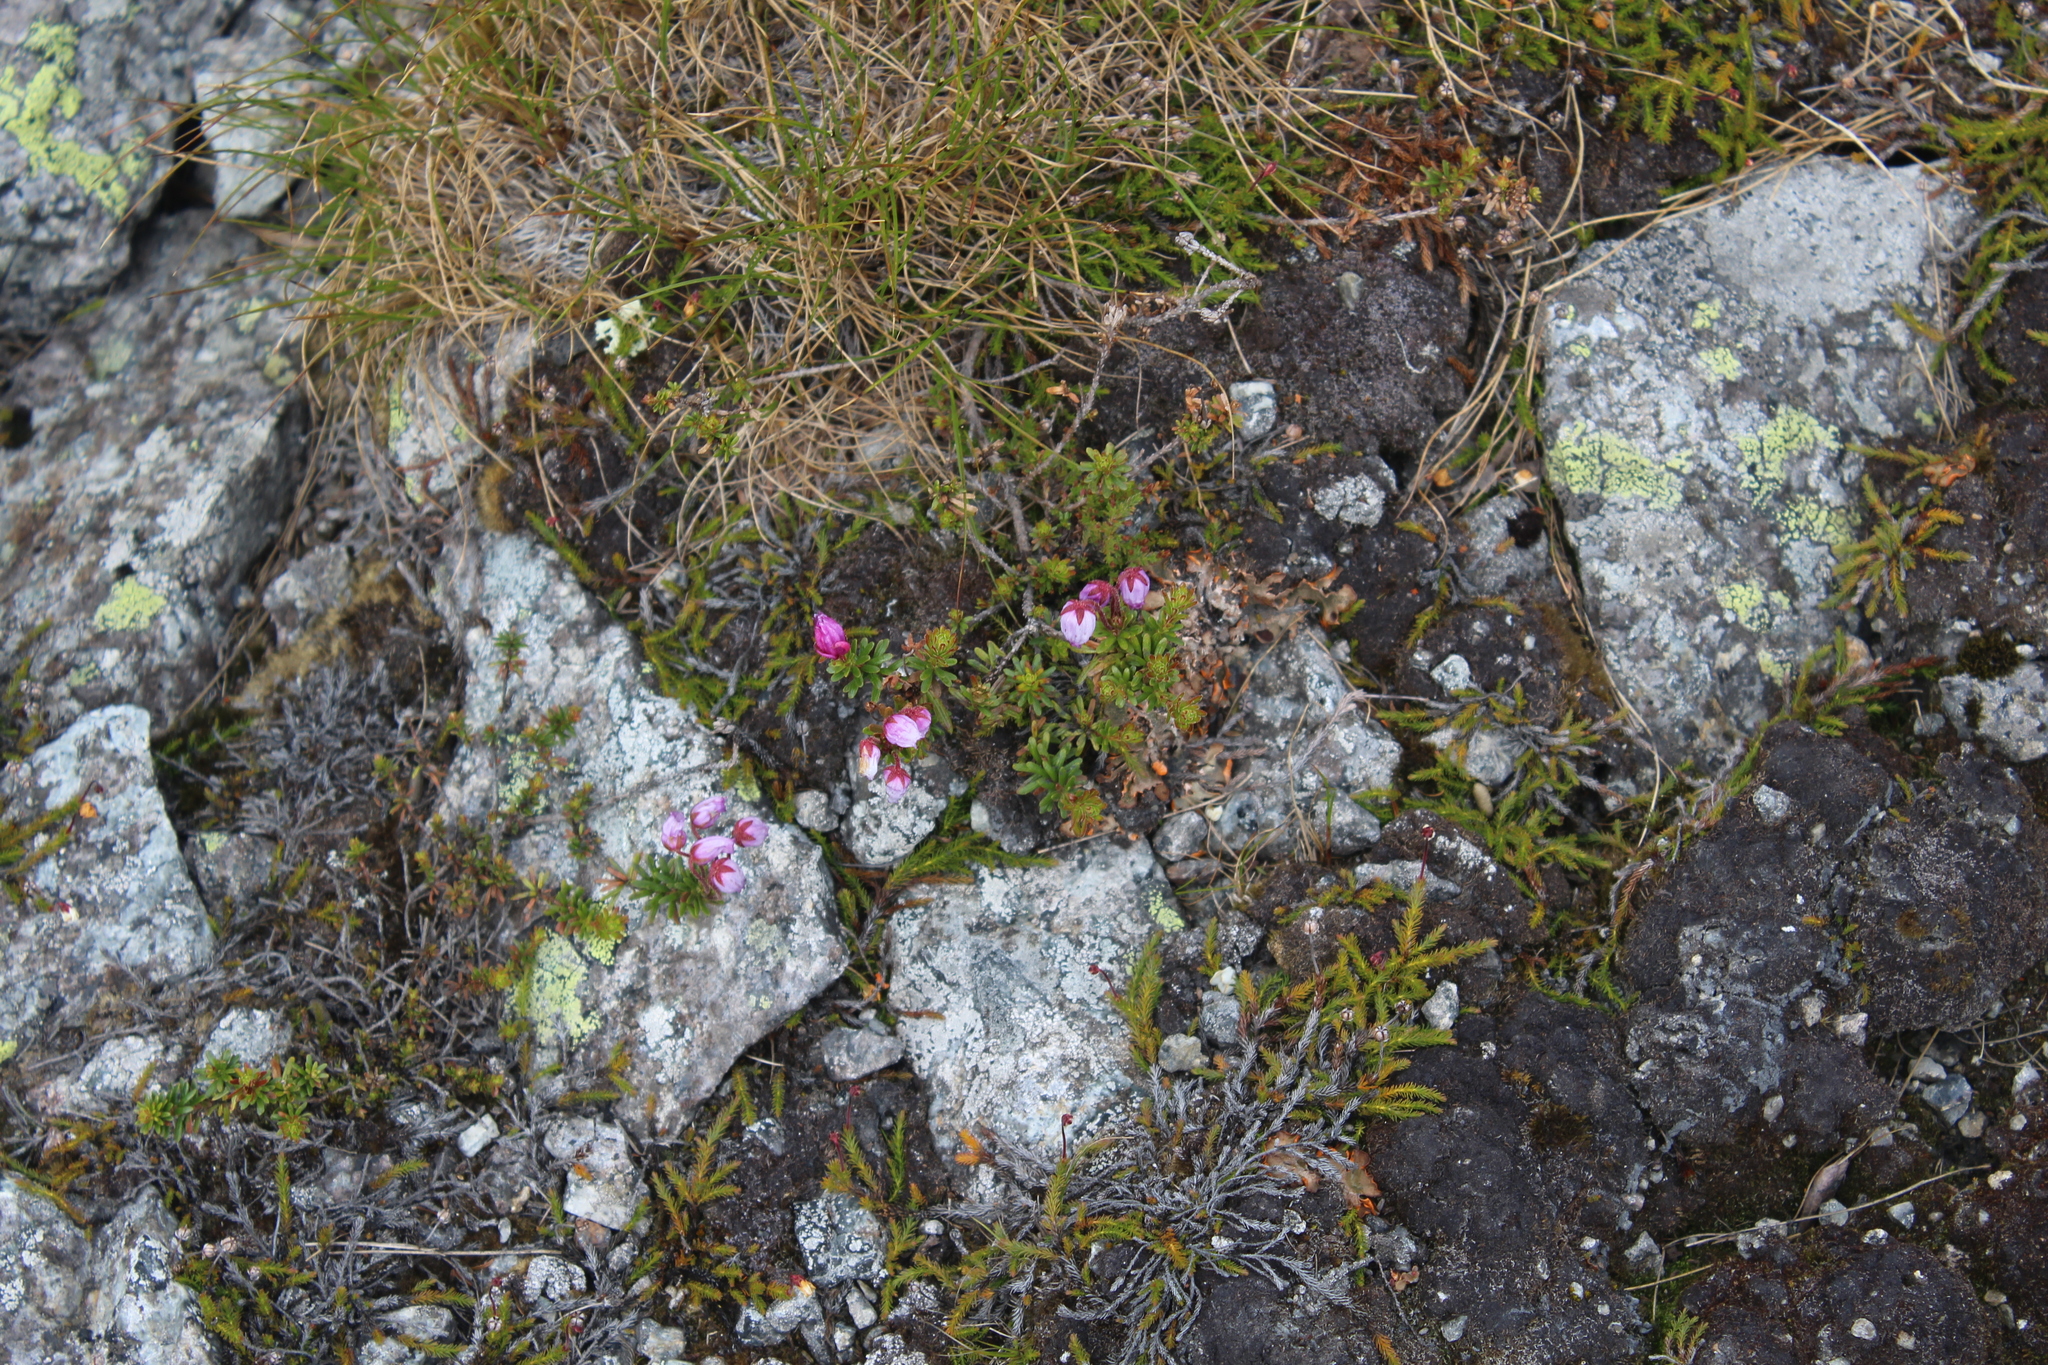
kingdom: Plantae
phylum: Tracheophyta
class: Magnoliopsida
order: Ericales
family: Ericaceae
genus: Phyllodoce
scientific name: Phyllodoce caerulea
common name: Blue heath
